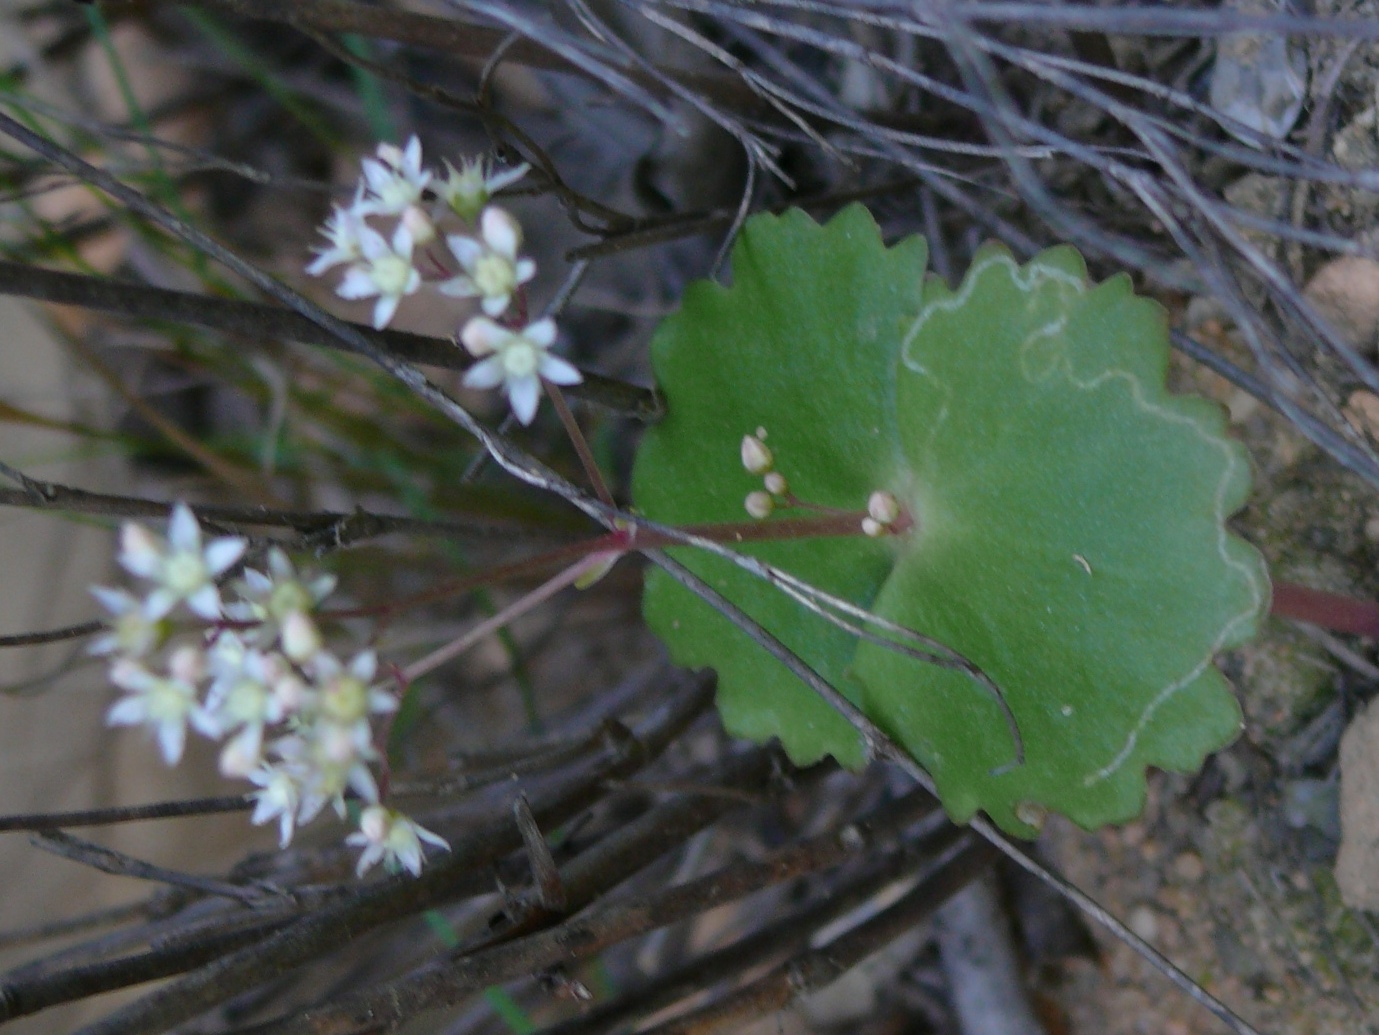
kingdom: Plantae
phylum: Tracheophyta
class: Magnoliopsida
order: Saxifragales
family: Crassulaceae
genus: Crassula
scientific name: Crassula umbella
